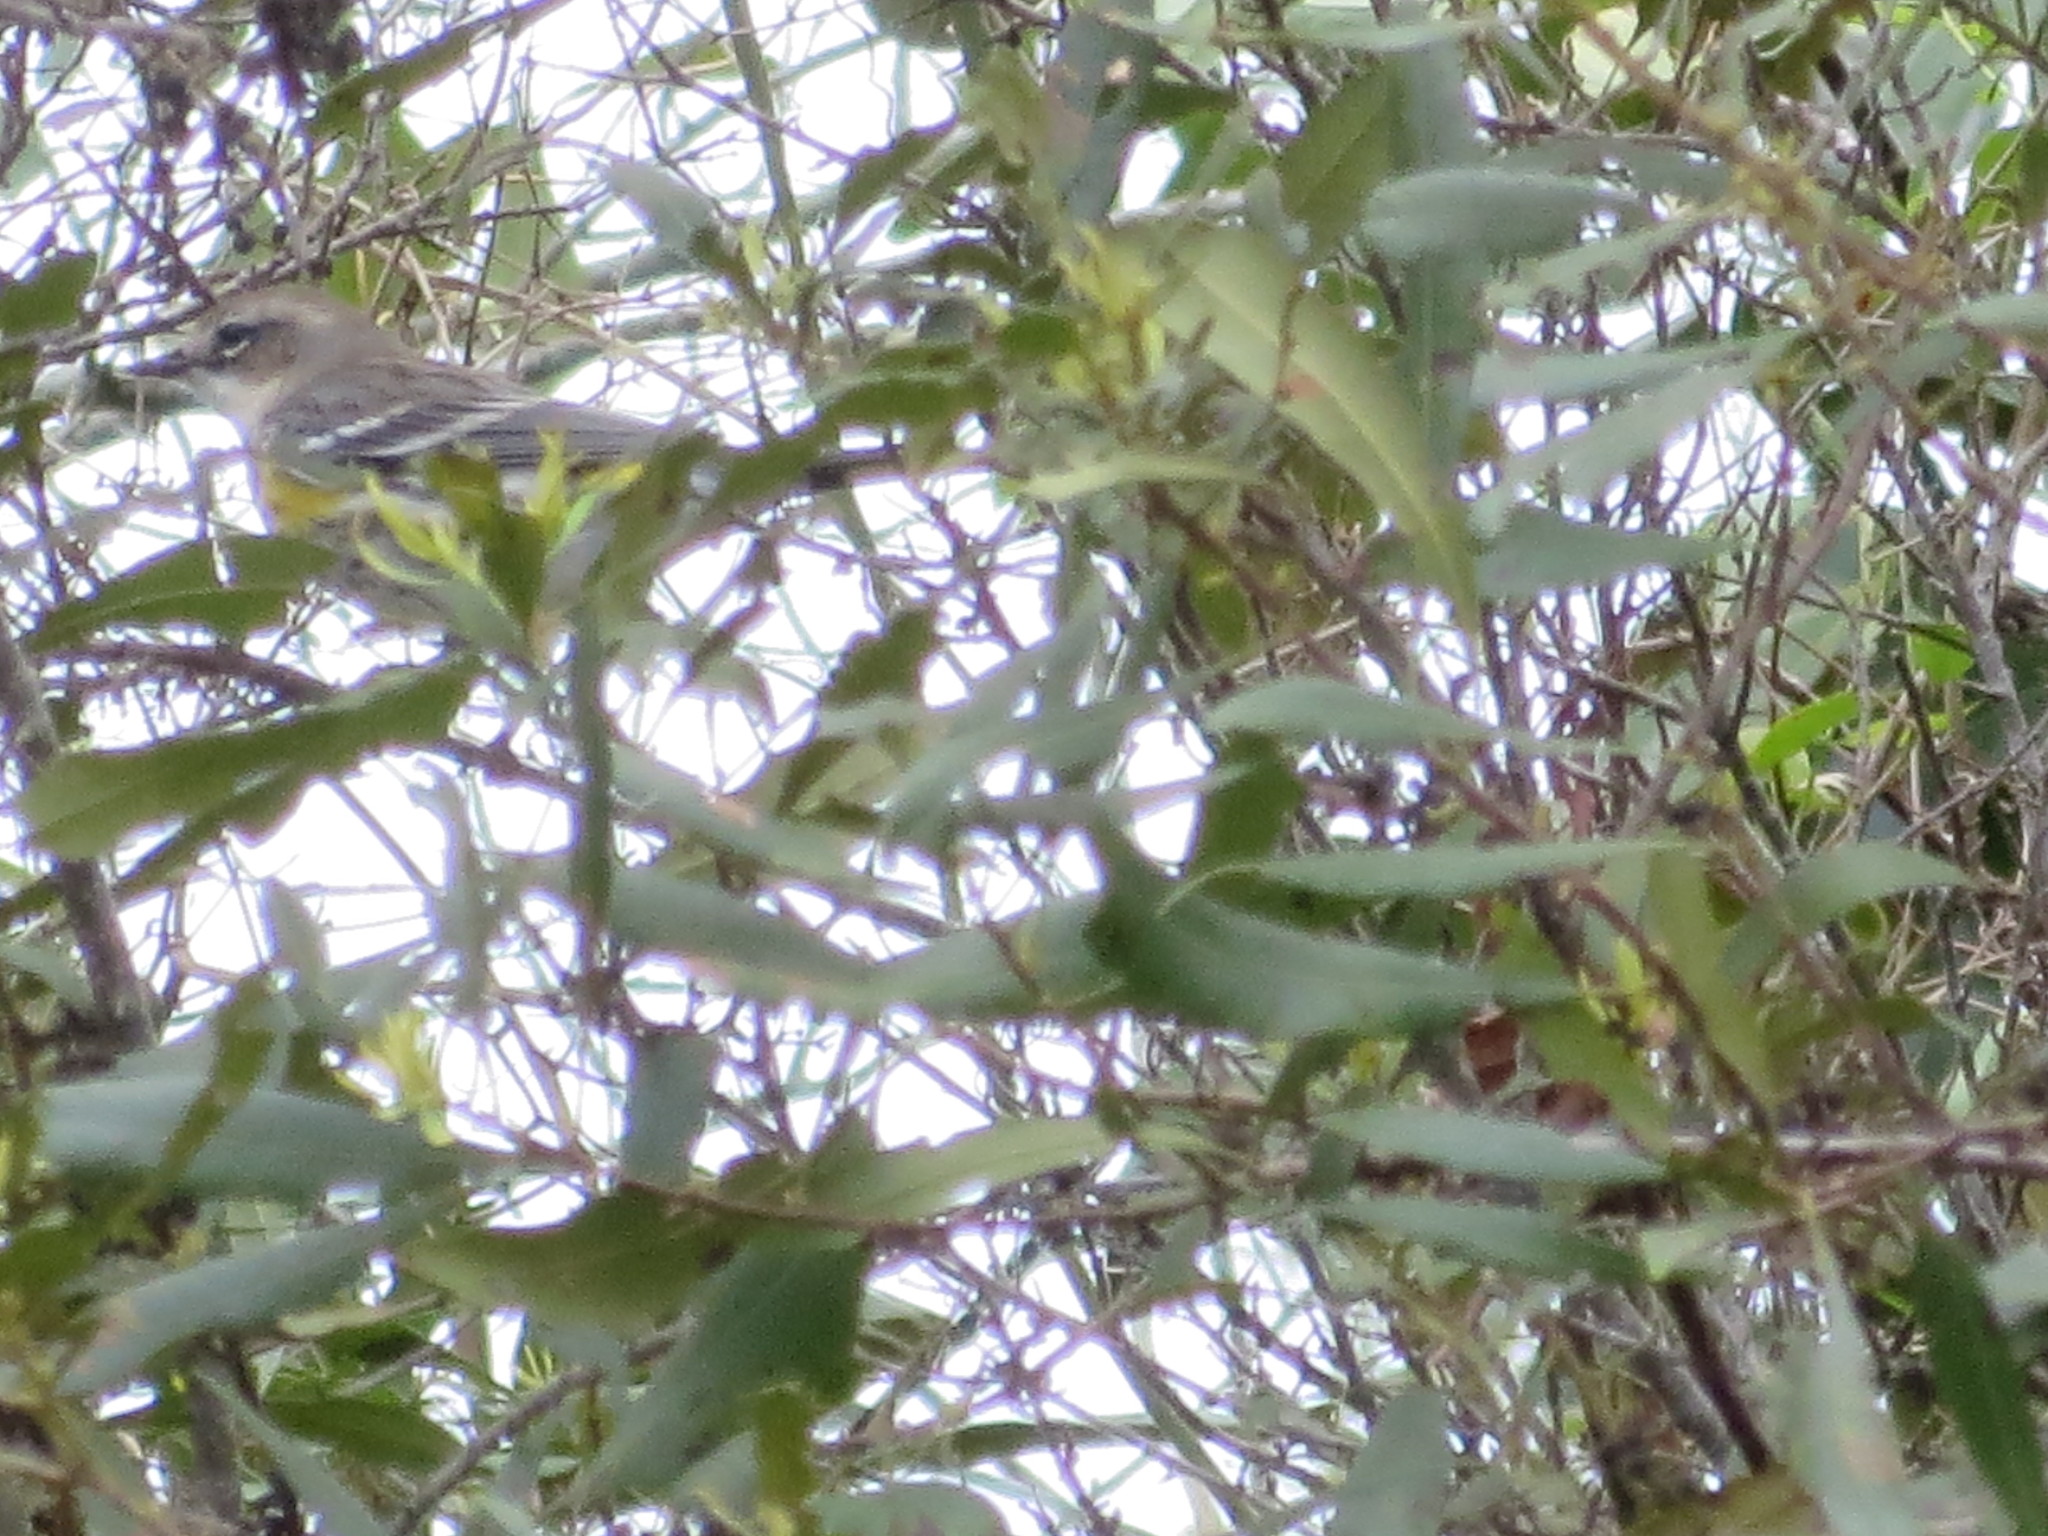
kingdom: Animalia
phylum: Chordata
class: Aves
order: Passeriformes
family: Parulidae
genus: Setophaga
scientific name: Setophaga coronata
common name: Myrtle warbler
